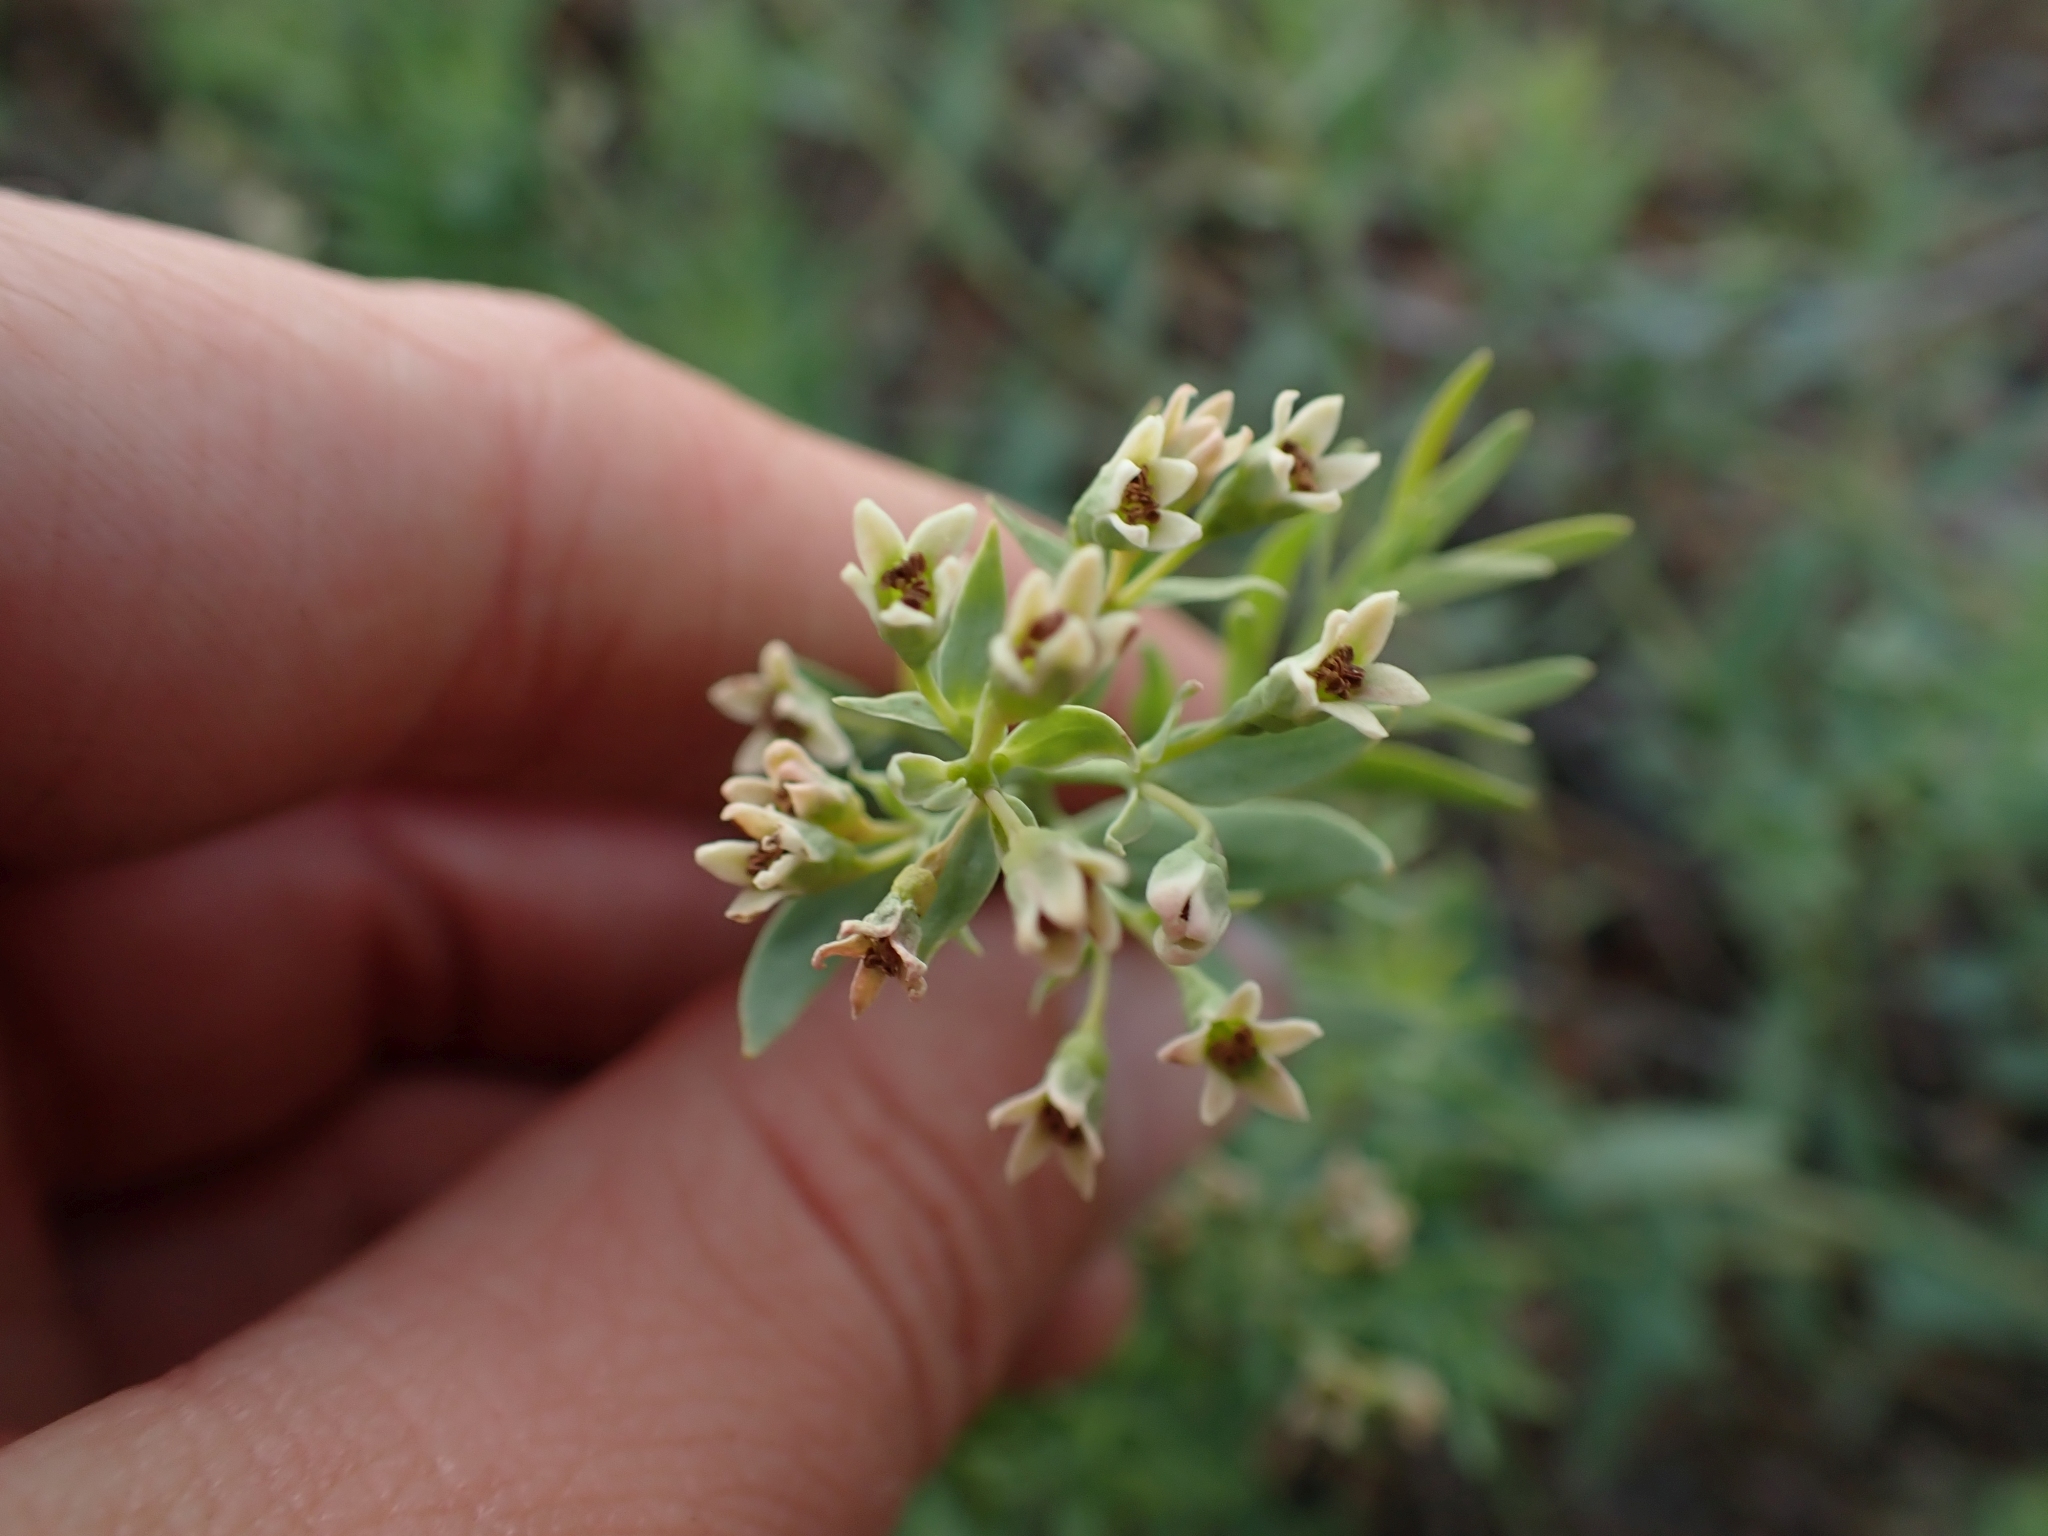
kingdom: Plantae
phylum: Tracheophyta
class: Magnoliopsida
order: Santalales
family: Comandraceae
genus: Comandra
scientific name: Comandra umbellata
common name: Bastard toadflax
